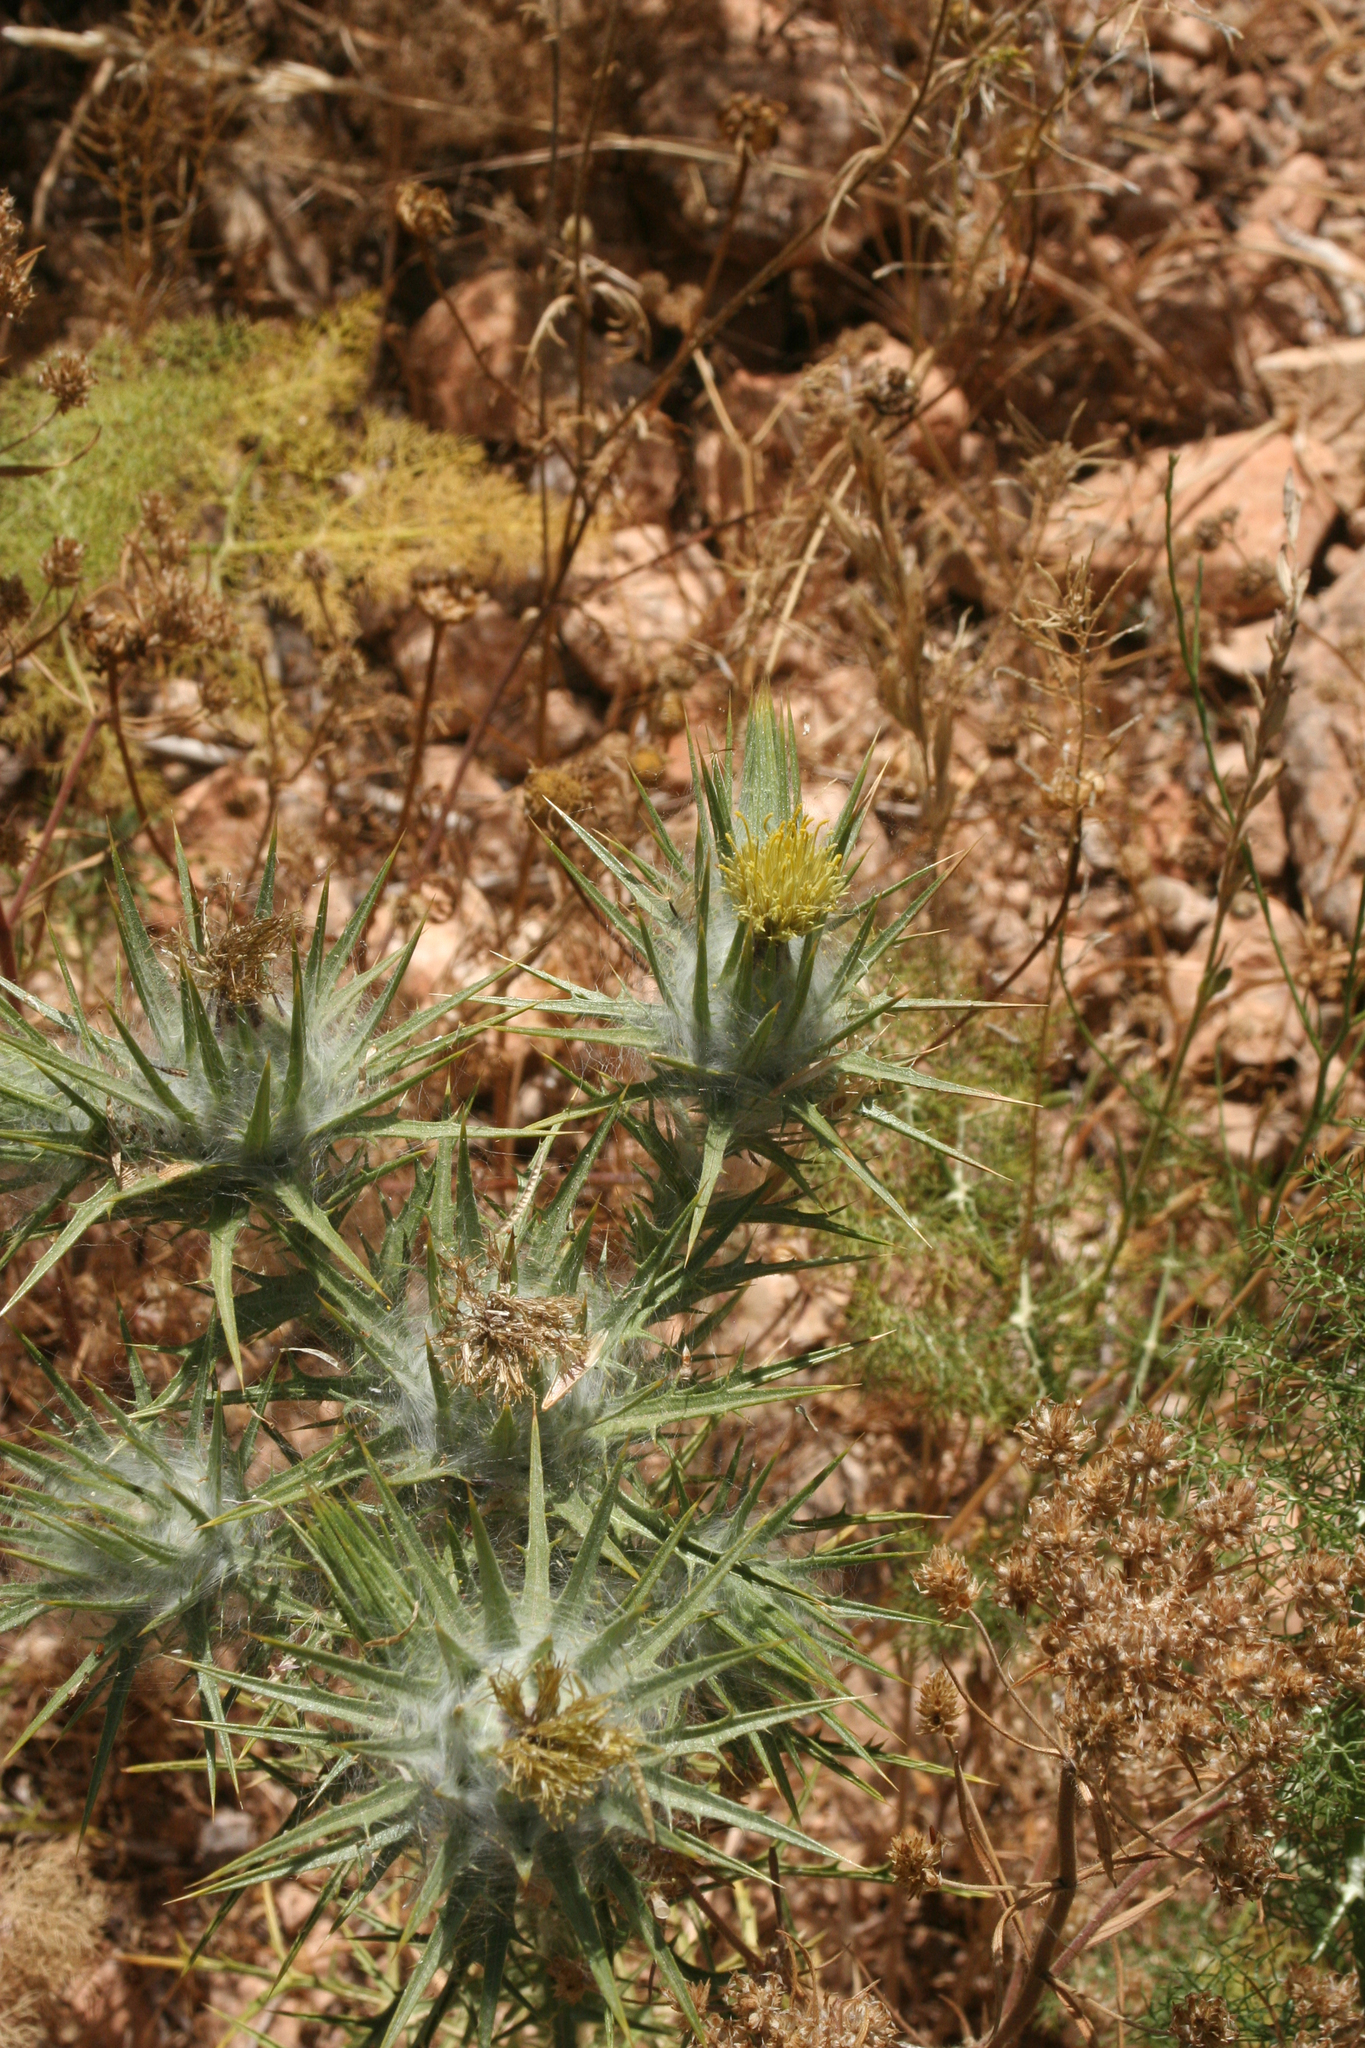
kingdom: Plantae
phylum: Tracheophyta
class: Magnoliopsida
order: Asterales
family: Asteraceae
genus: Carthamus
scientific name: Carthamus lanatus
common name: Downy safflower
